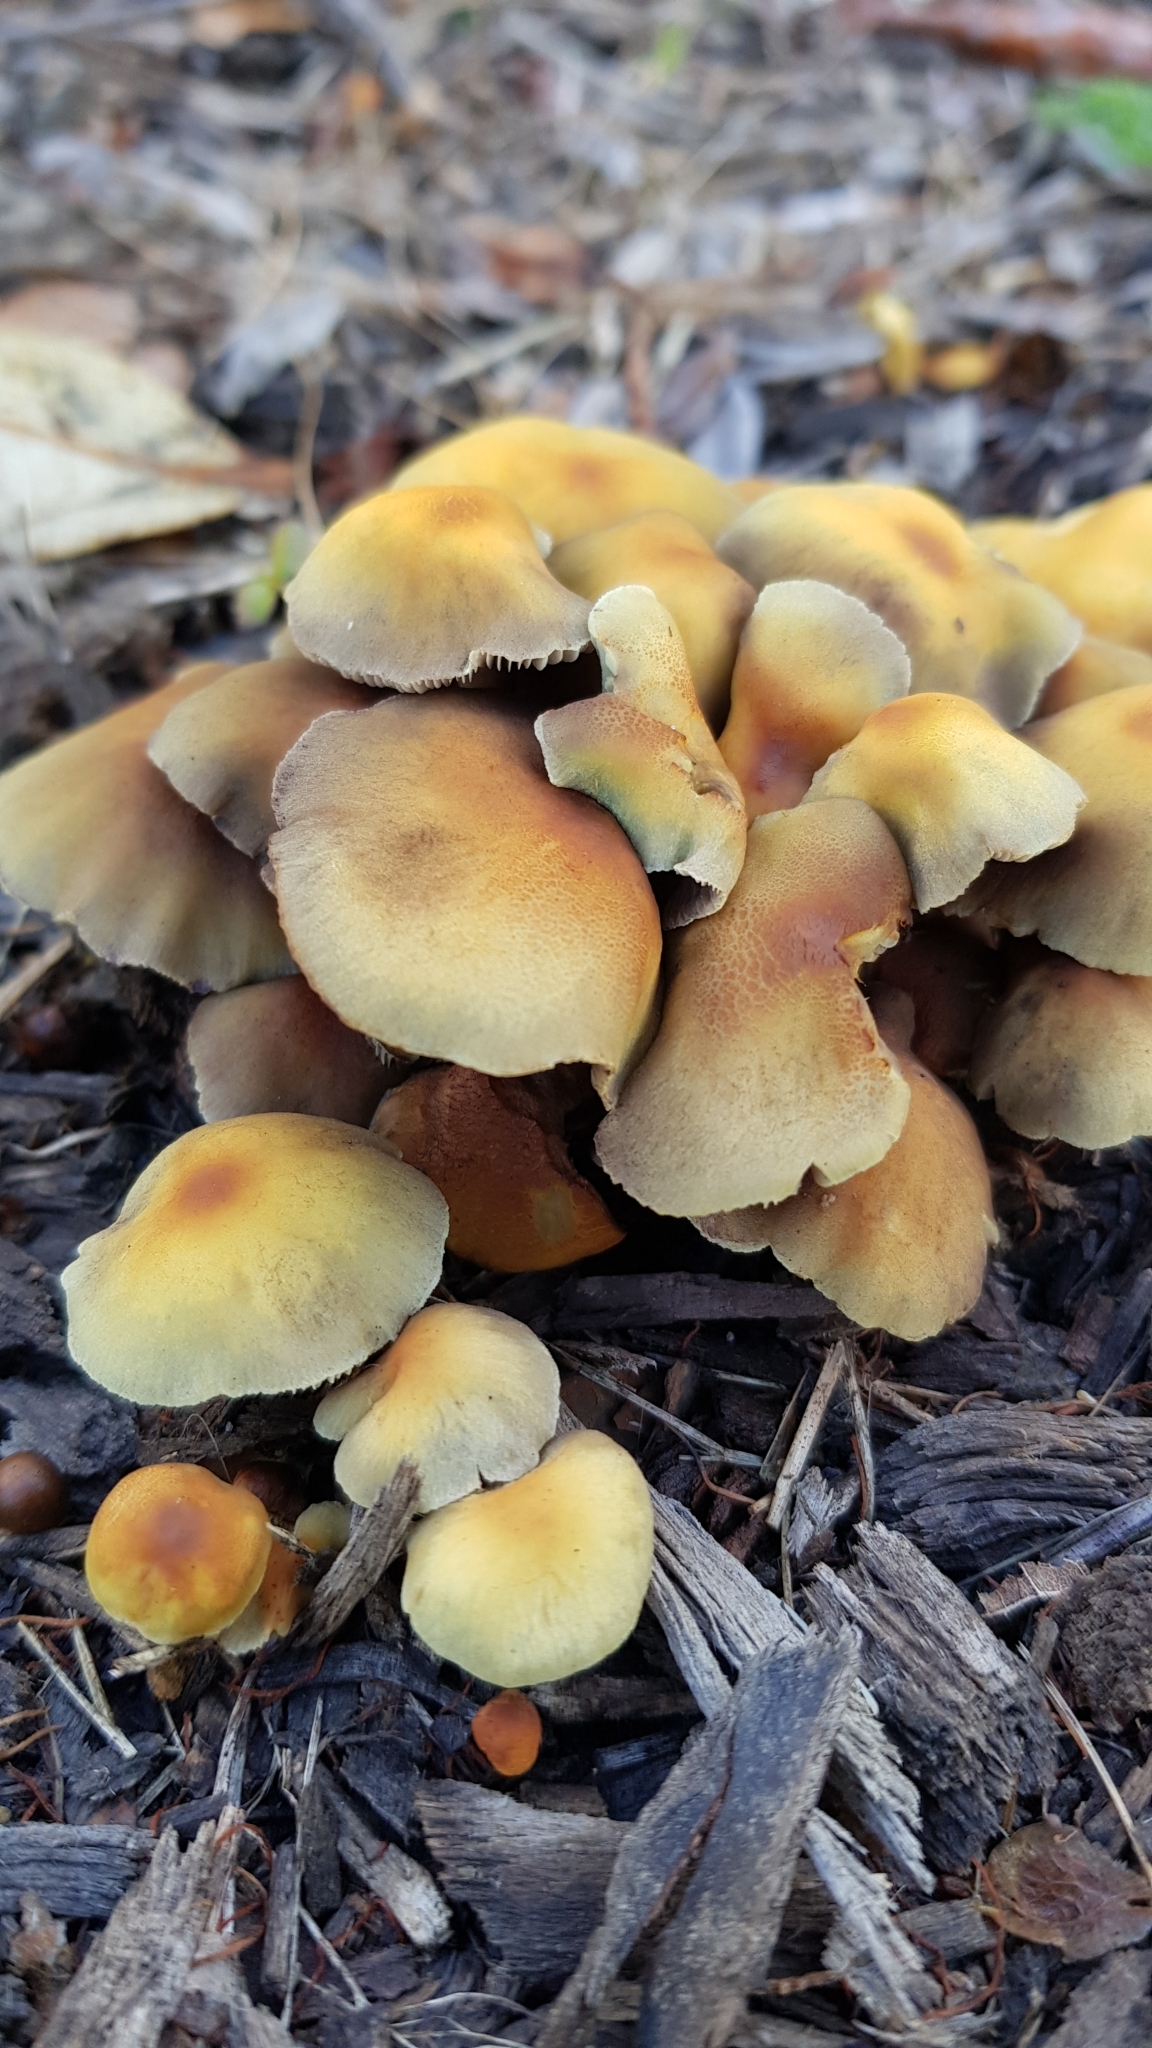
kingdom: Fungi
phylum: Basidiomycota
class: Agaricomycetes
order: Agaricales
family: Strophariaceae
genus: Hypholoma
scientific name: Hypholoma fasciculare
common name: Sulphur tuft
